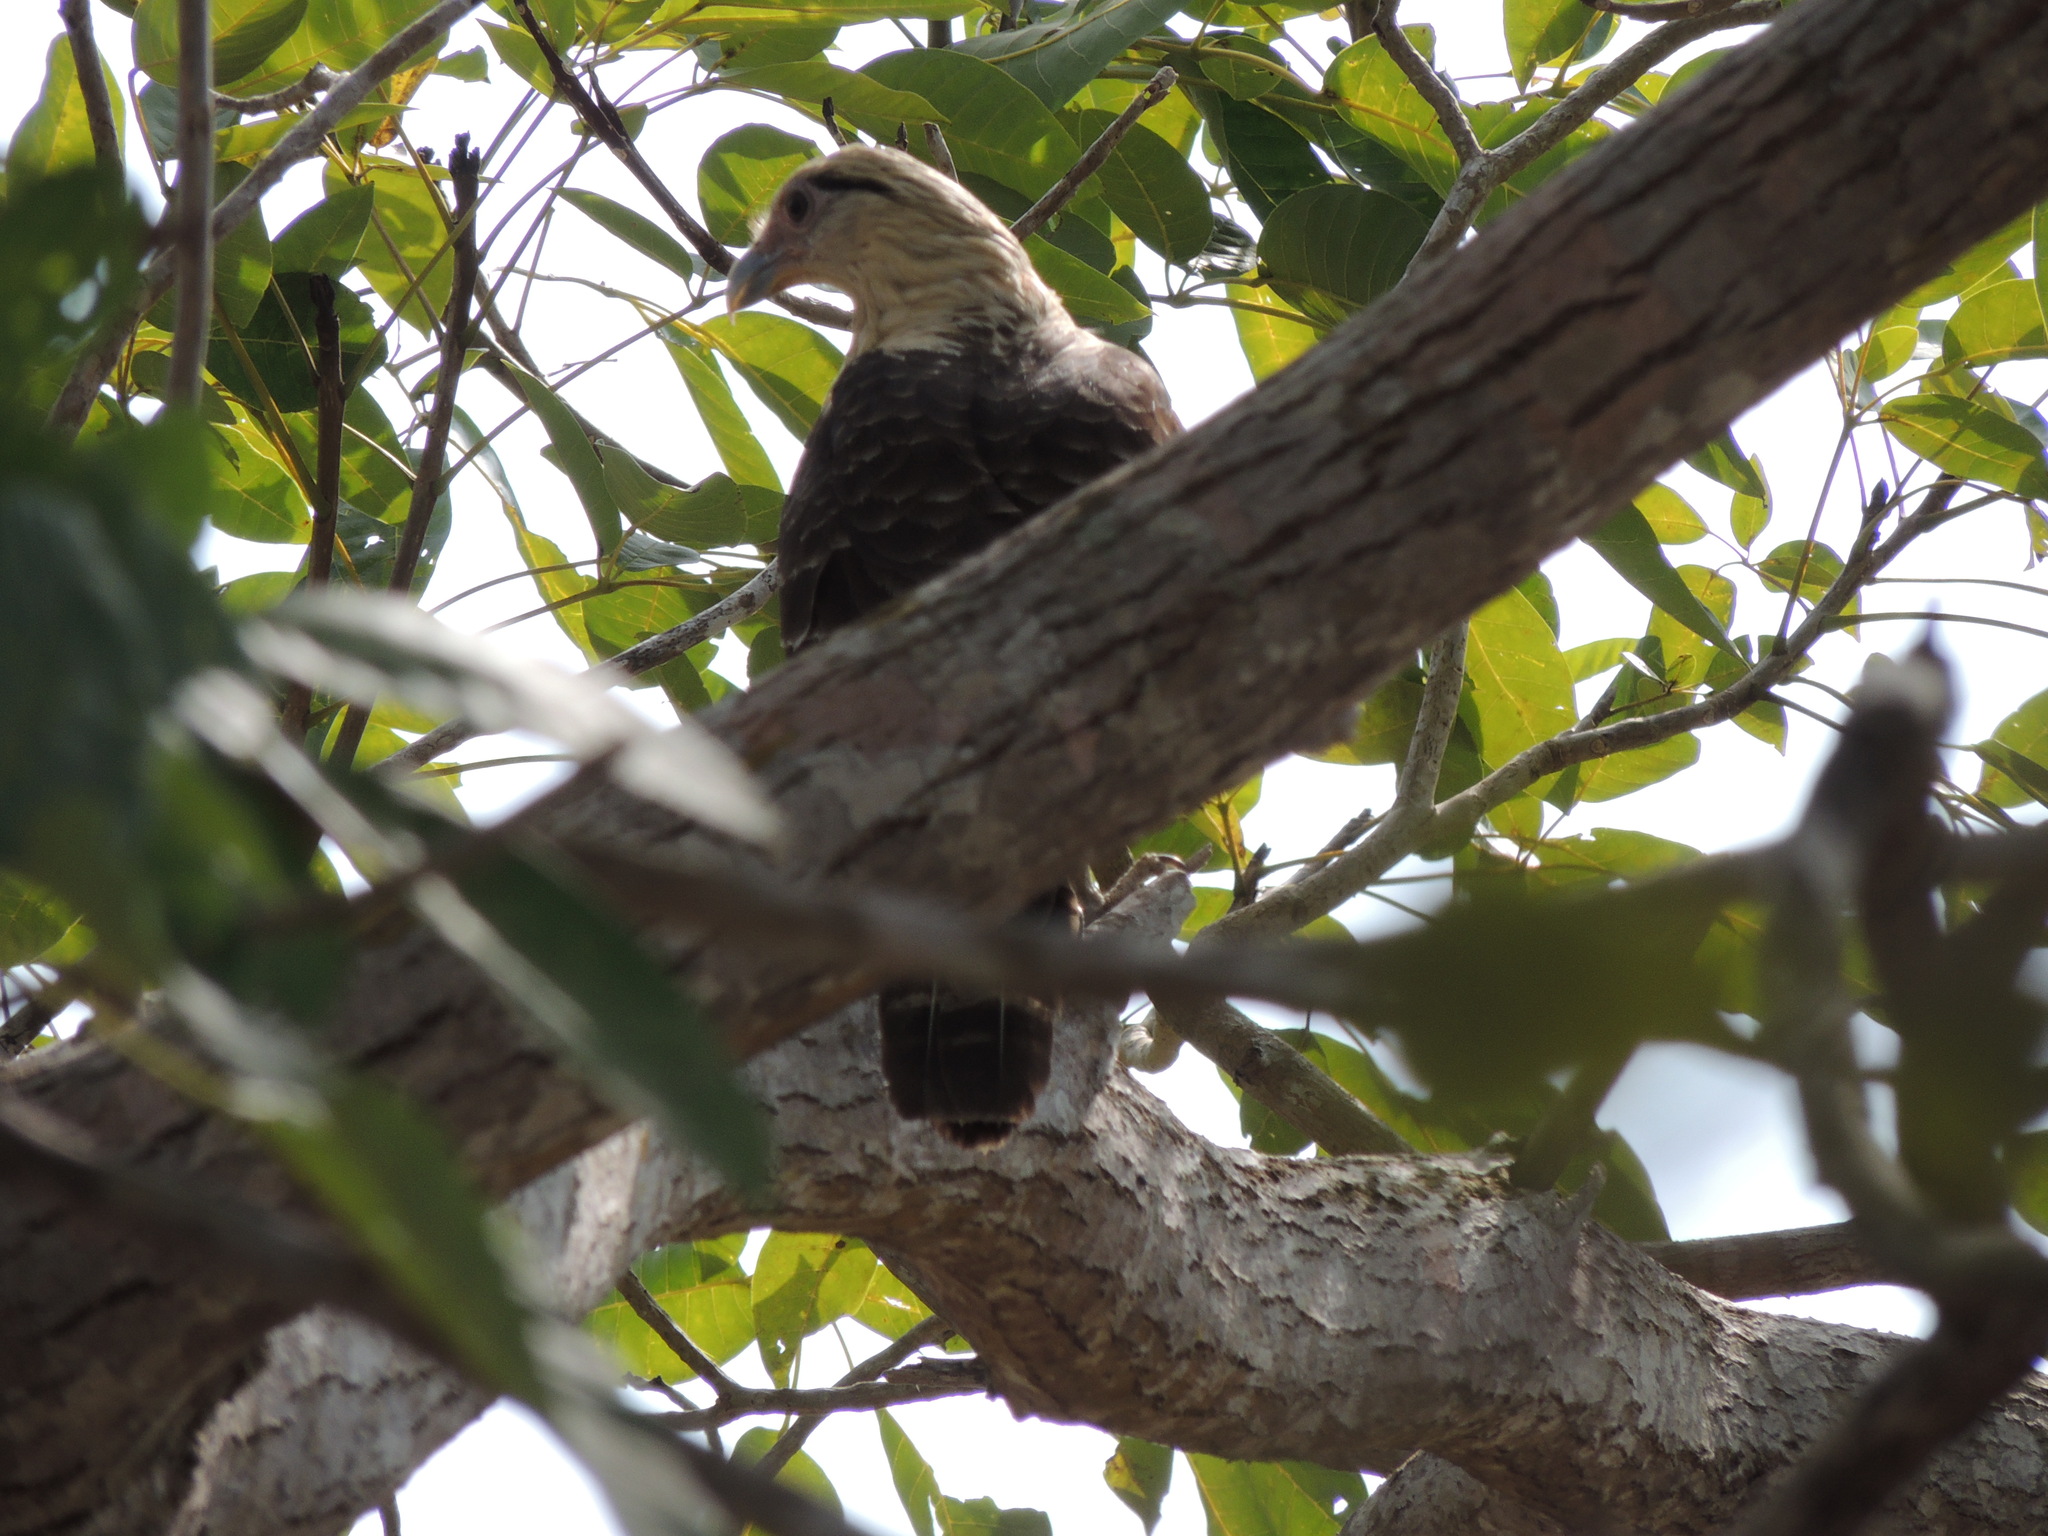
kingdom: Animalia
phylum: Chordata
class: Aves
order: Falconiformes
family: Falconidae
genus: Daptrius
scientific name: Daptrius
